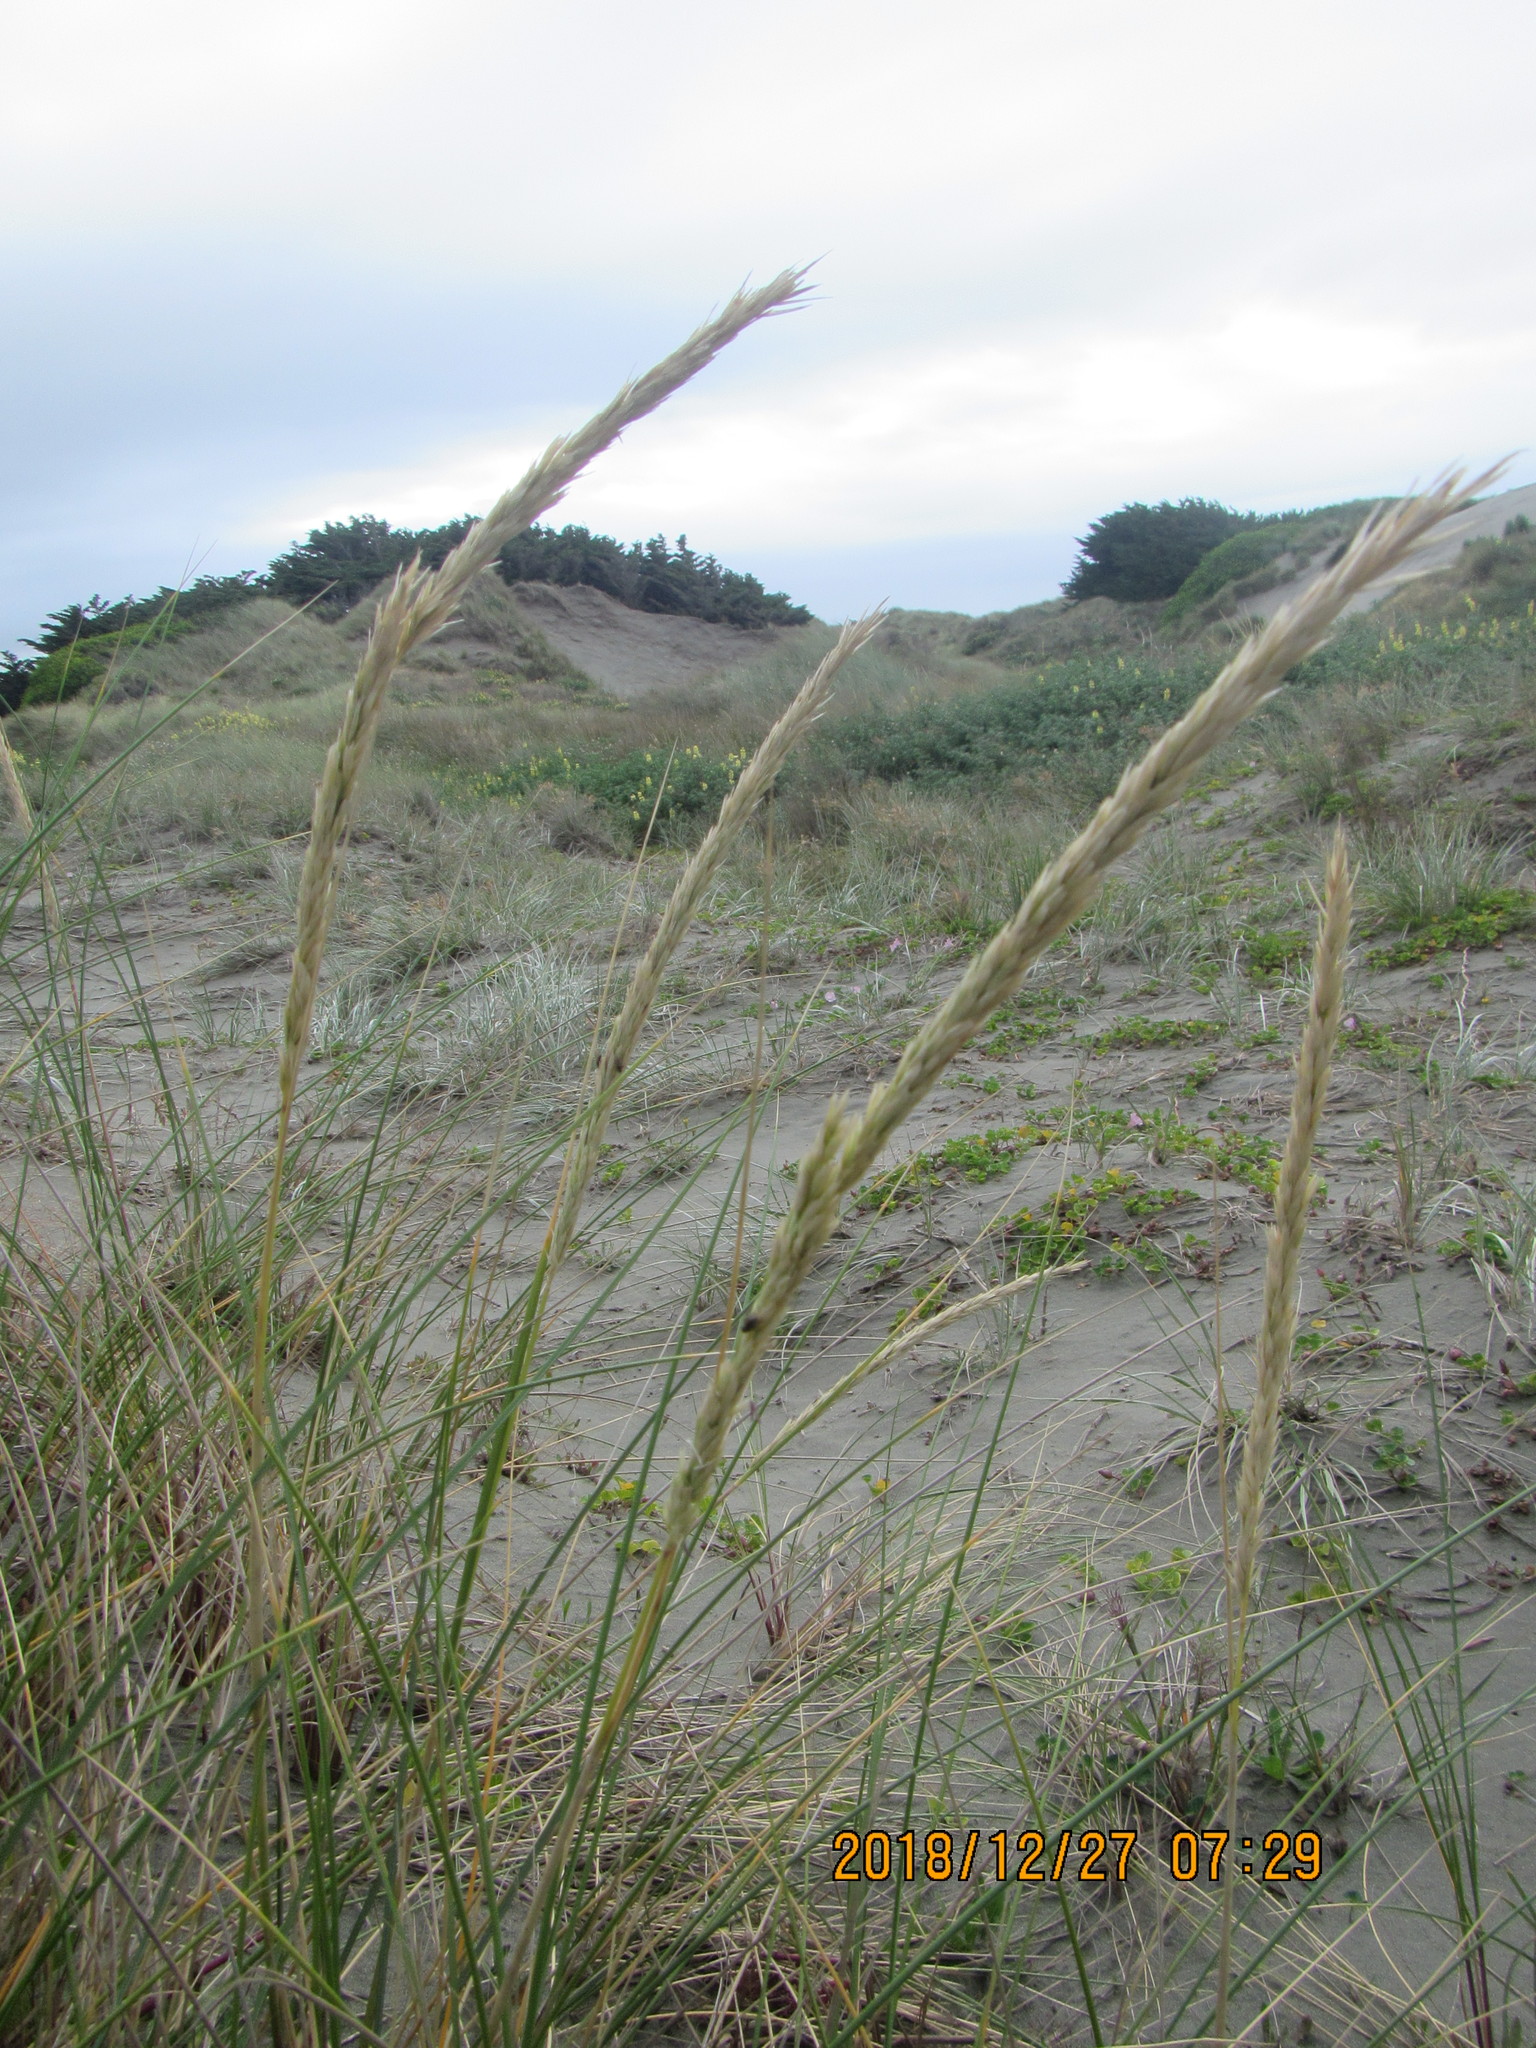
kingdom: Plantae
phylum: Tracheophyta
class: Liliopsida
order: Poales
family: Poaceae
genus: Calamagrostis
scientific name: Calamagrostis arenaria
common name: European beachgrass
